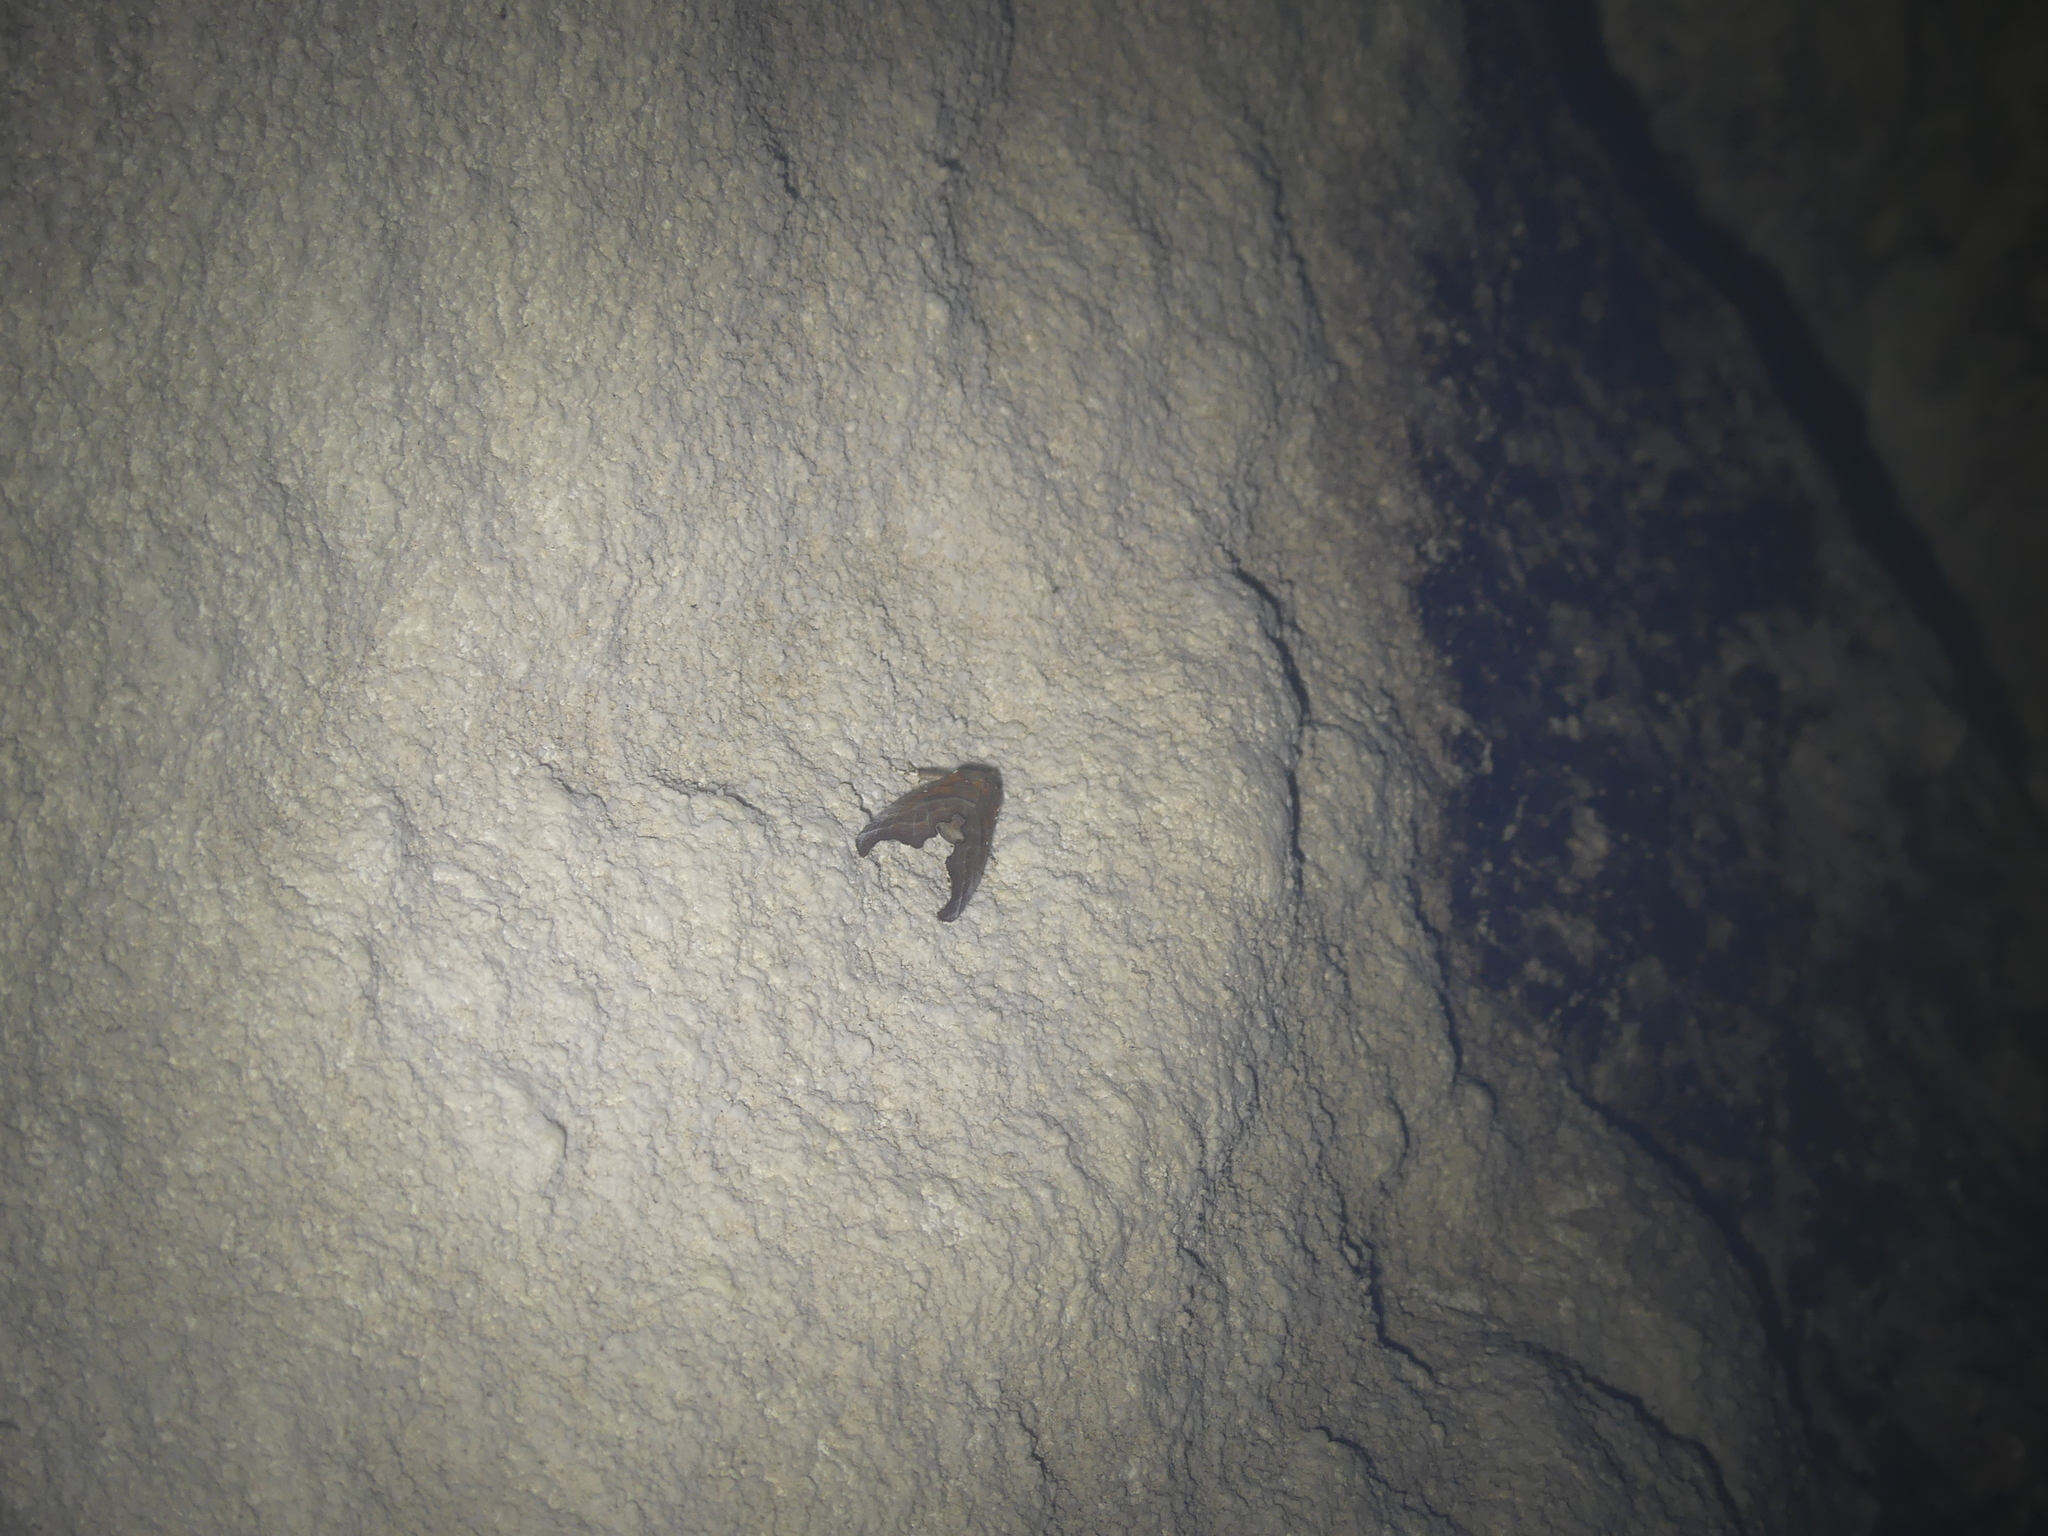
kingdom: Animalia
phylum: Arthropoda
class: Insecta
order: Lepidoptera
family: Erebidae
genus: Scoliopteryx
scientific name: Scoliopteryx libatrix
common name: Herald
